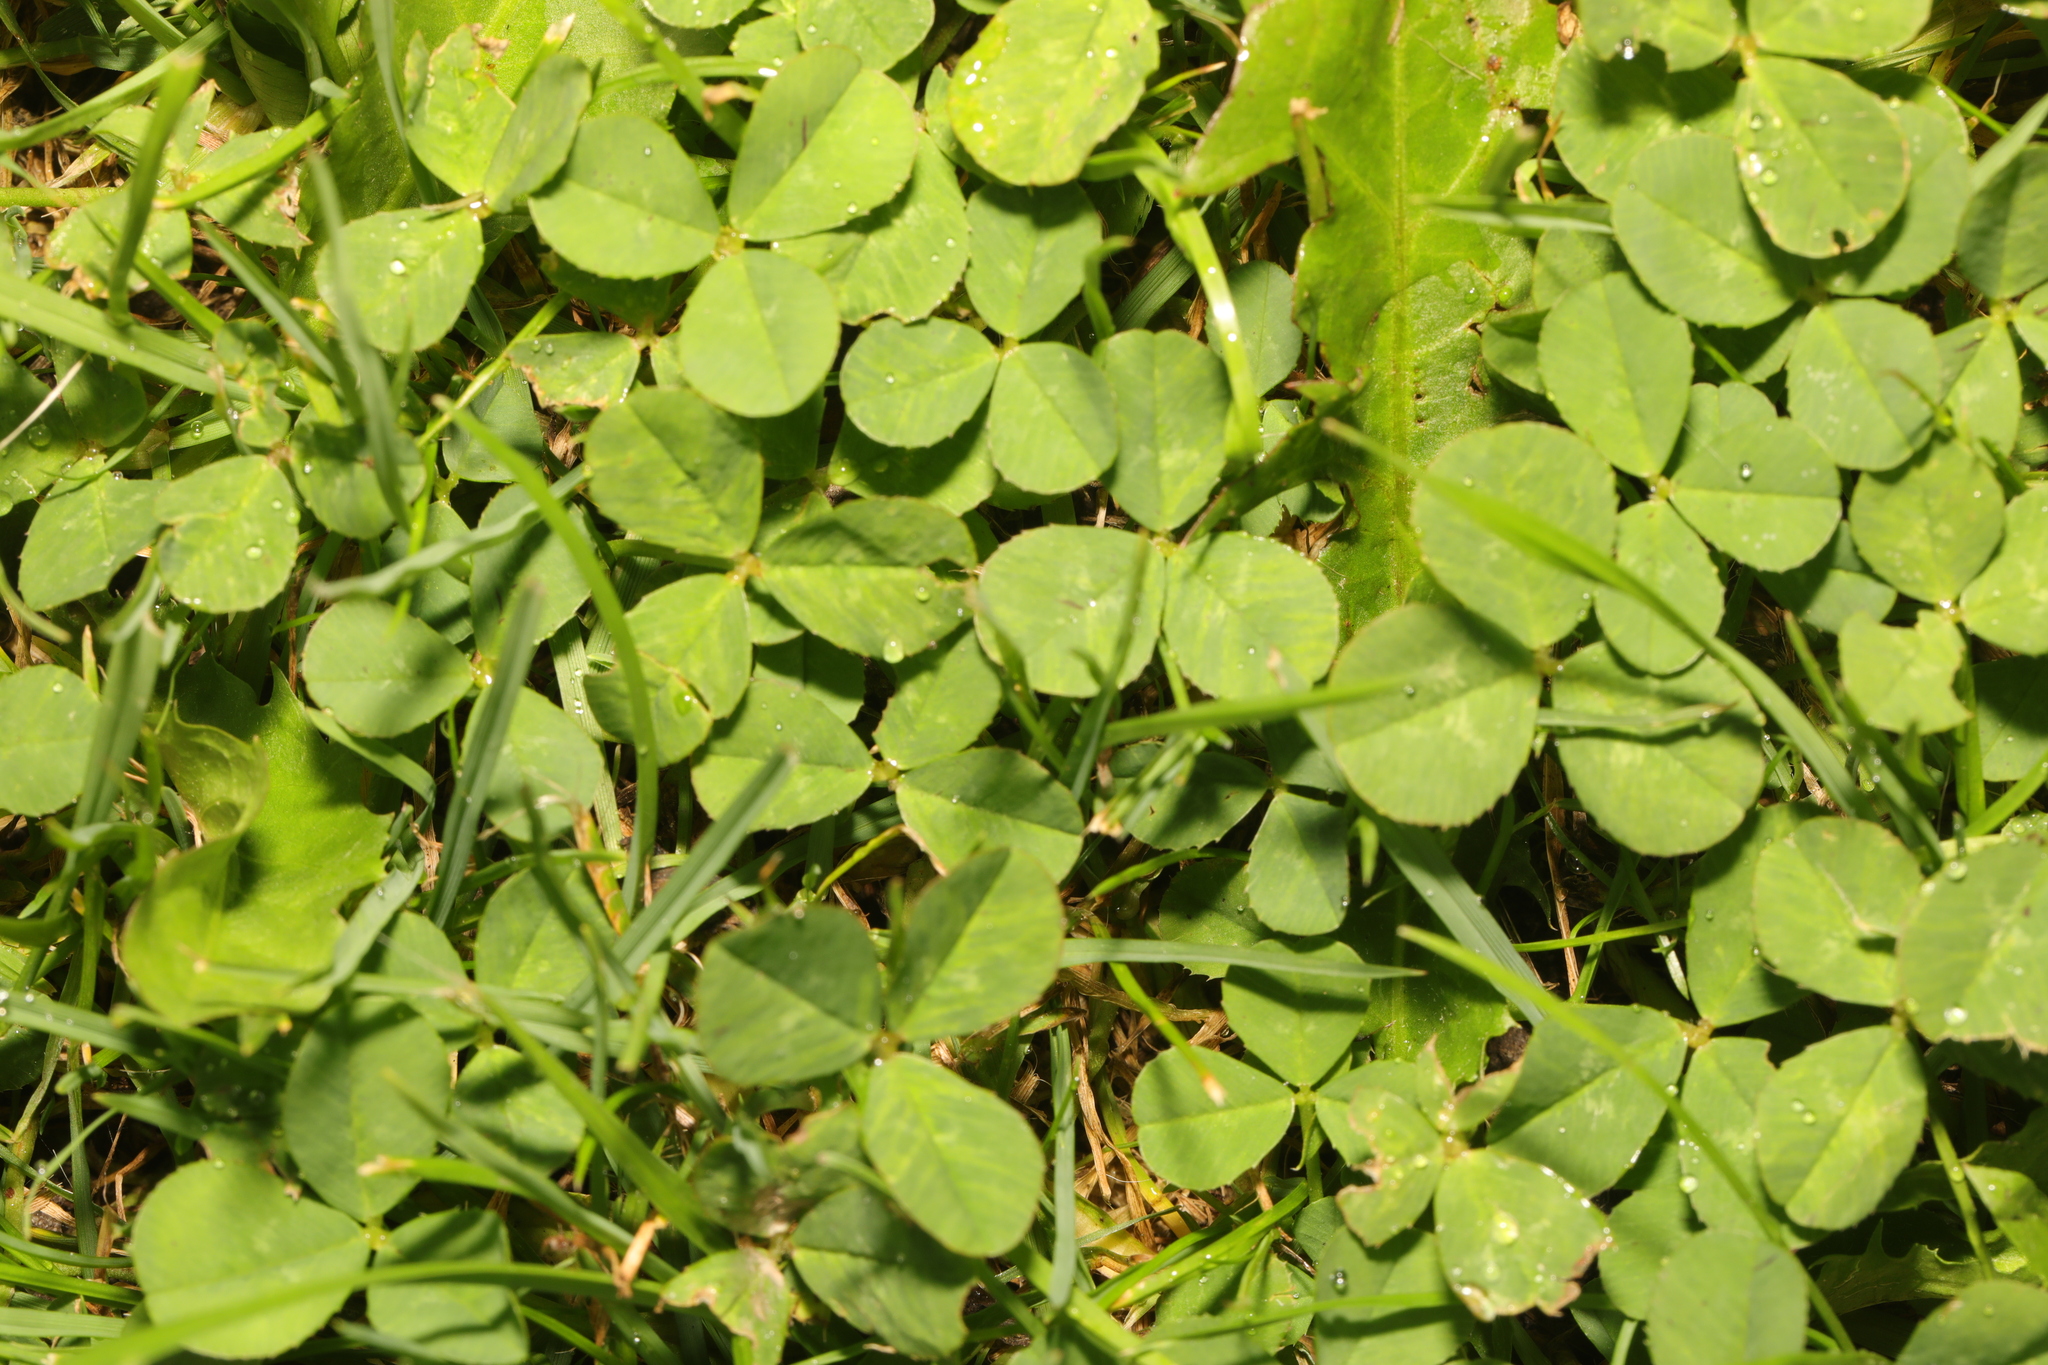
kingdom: Plantae
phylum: Tracheophyta
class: Magnoliopsida
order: Fabales
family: Fabaceae
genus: Trifolium
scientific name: Trifolium repens
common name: White clover
